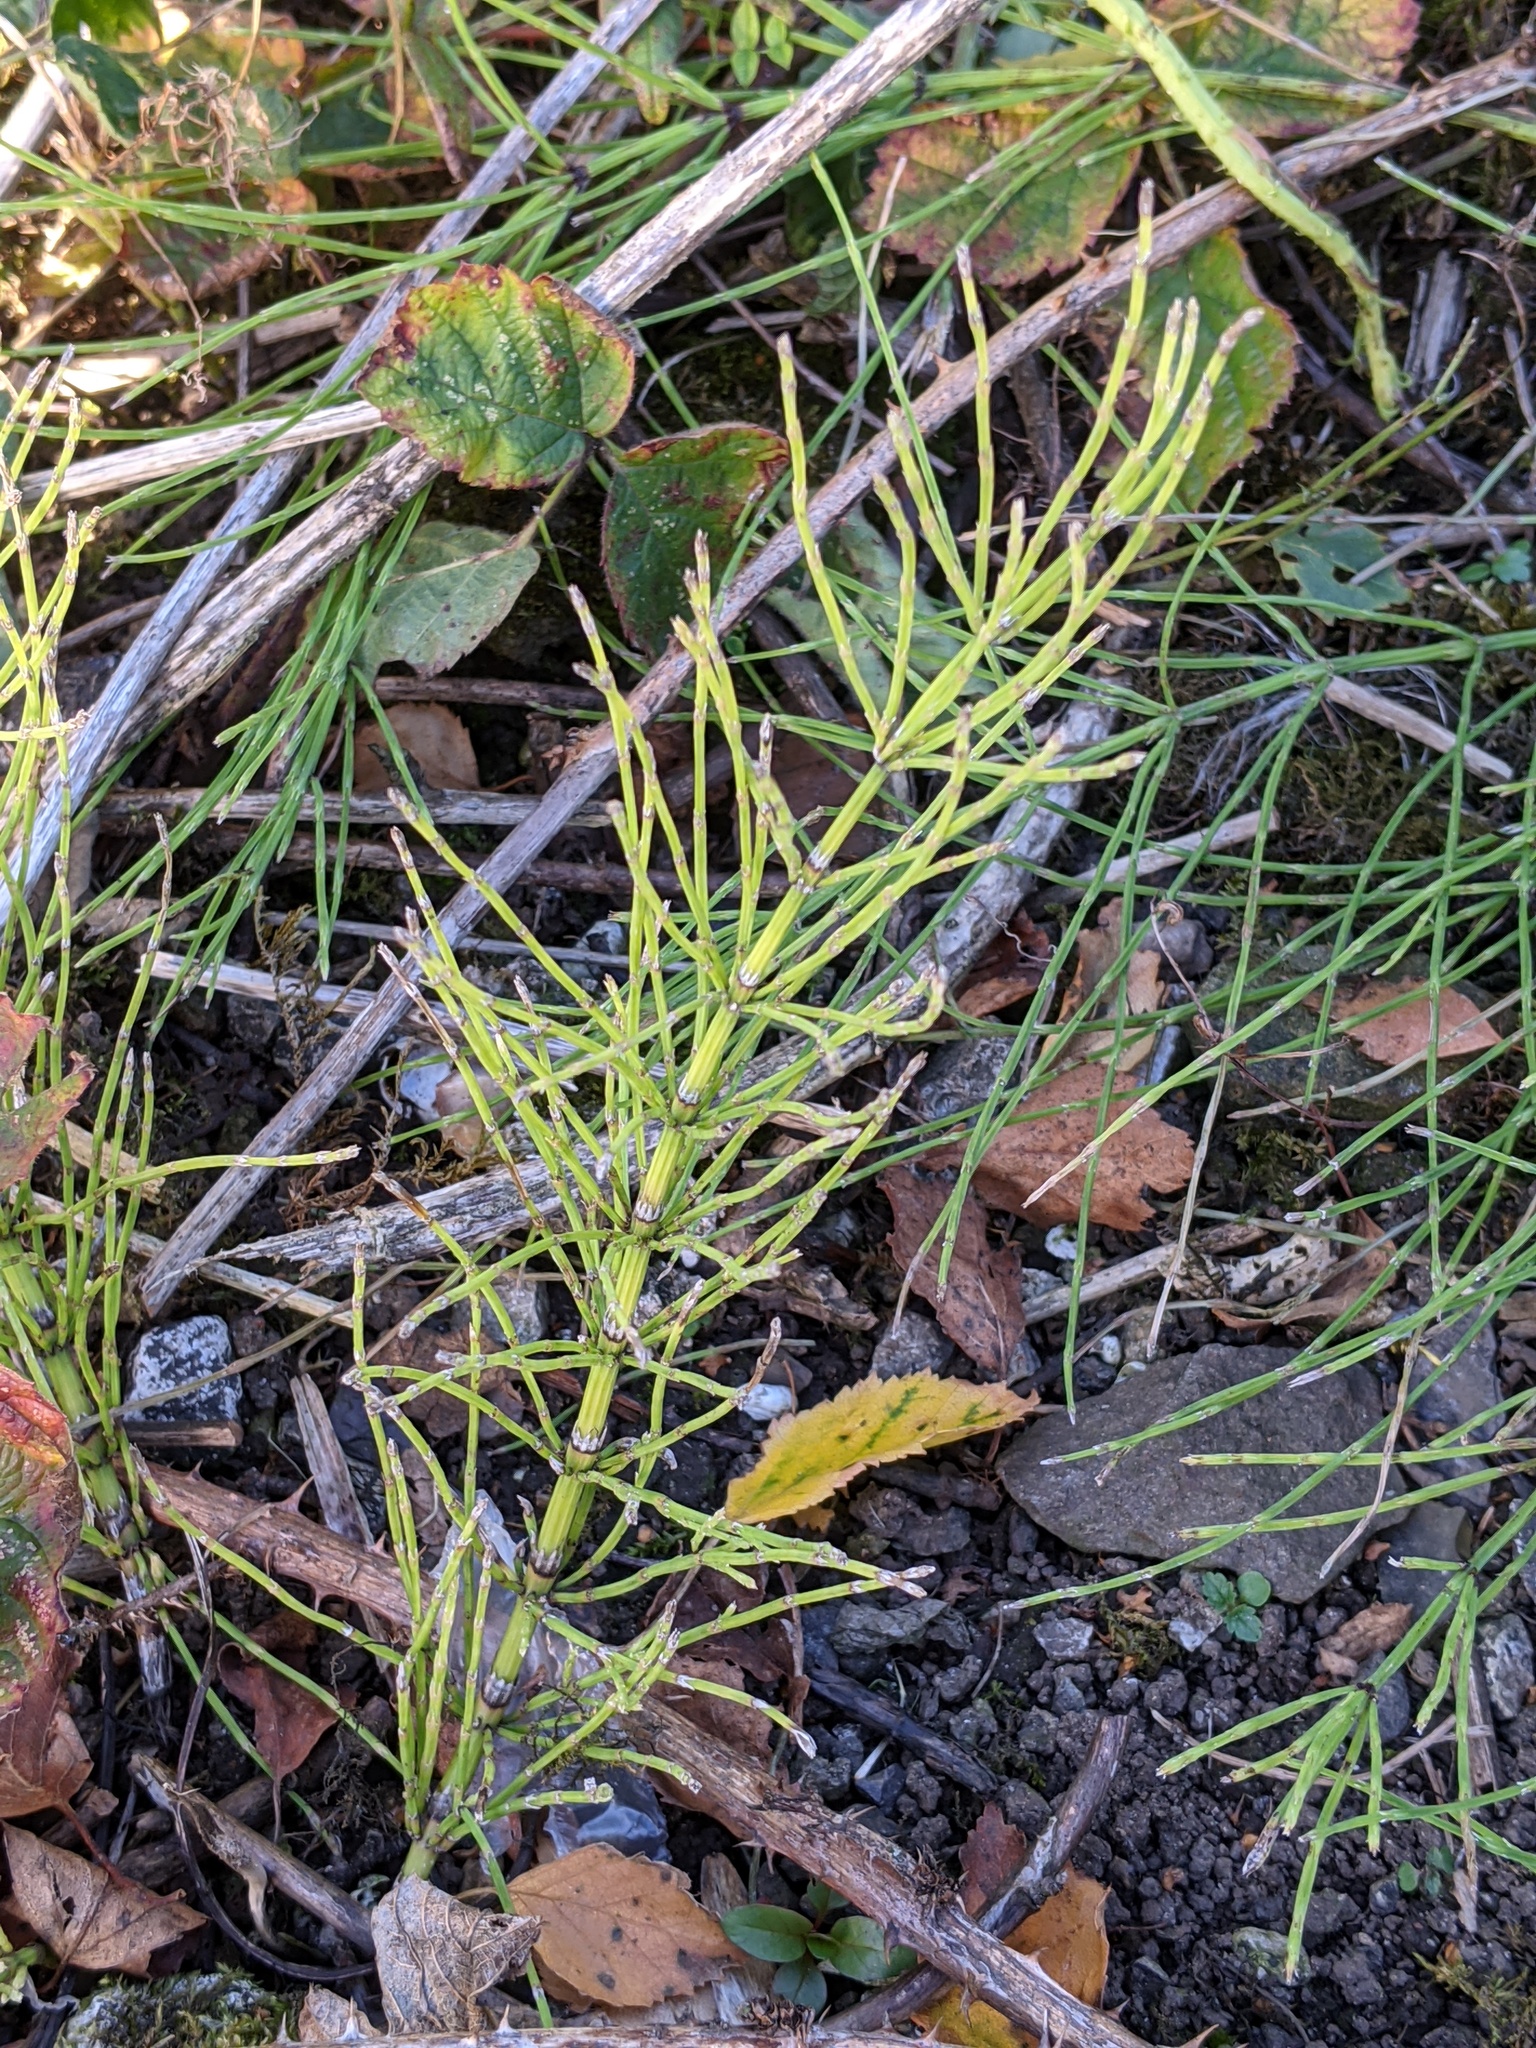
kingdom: Plantae
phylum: Tracheophyta
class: Polypodiopsida
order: Equisetales
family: Equisetaceae
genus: Equisetum
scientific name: Equisetum arvense
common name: Field horsetail
